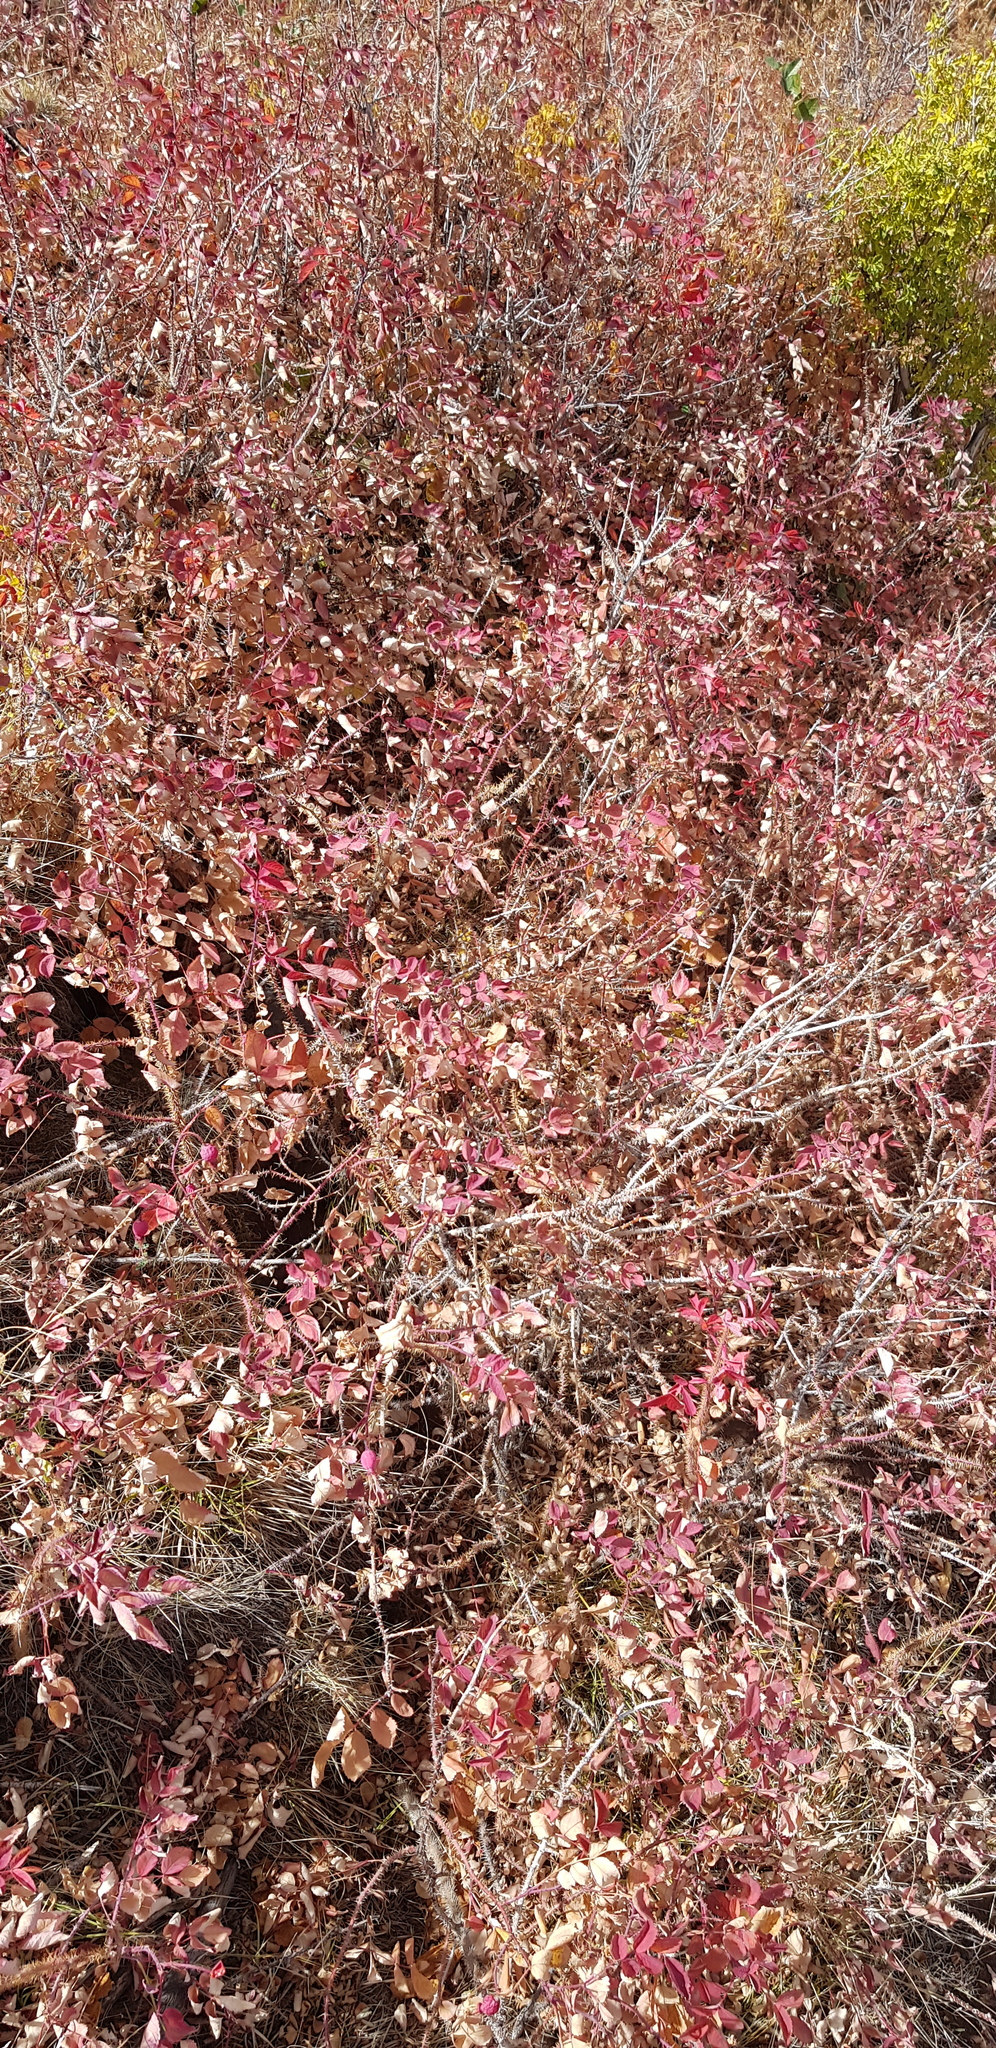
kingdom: Plantae
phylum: Tracheophyta
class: Magnoliopsida
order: Rosales
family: Rosaceae
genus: Rosa
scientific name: Rosa acicularis
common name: Prickly rose
